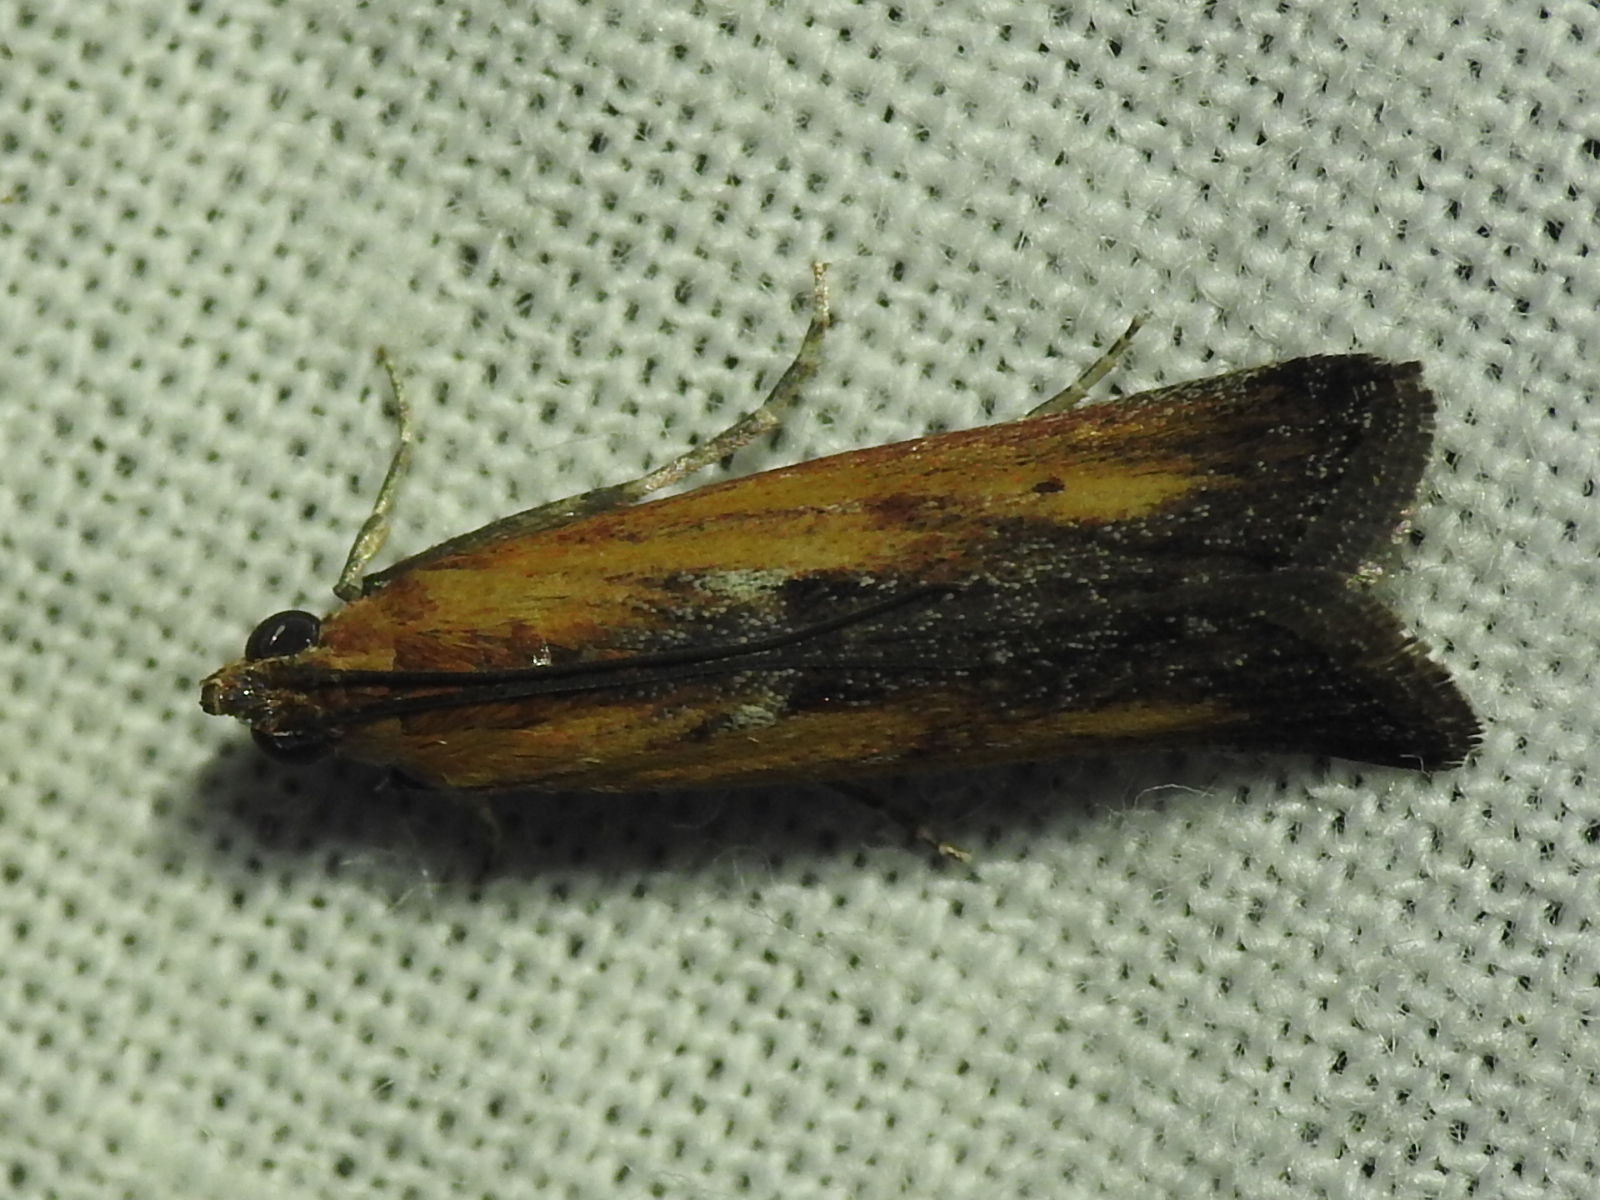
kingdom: Animalia
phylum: Arthropoda
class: Insecta
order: Lepidoptera
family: Pyralidae
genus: Elasmopalpus
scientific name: Elasmopalpus lignosella
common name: Lesser cornstalk borer
